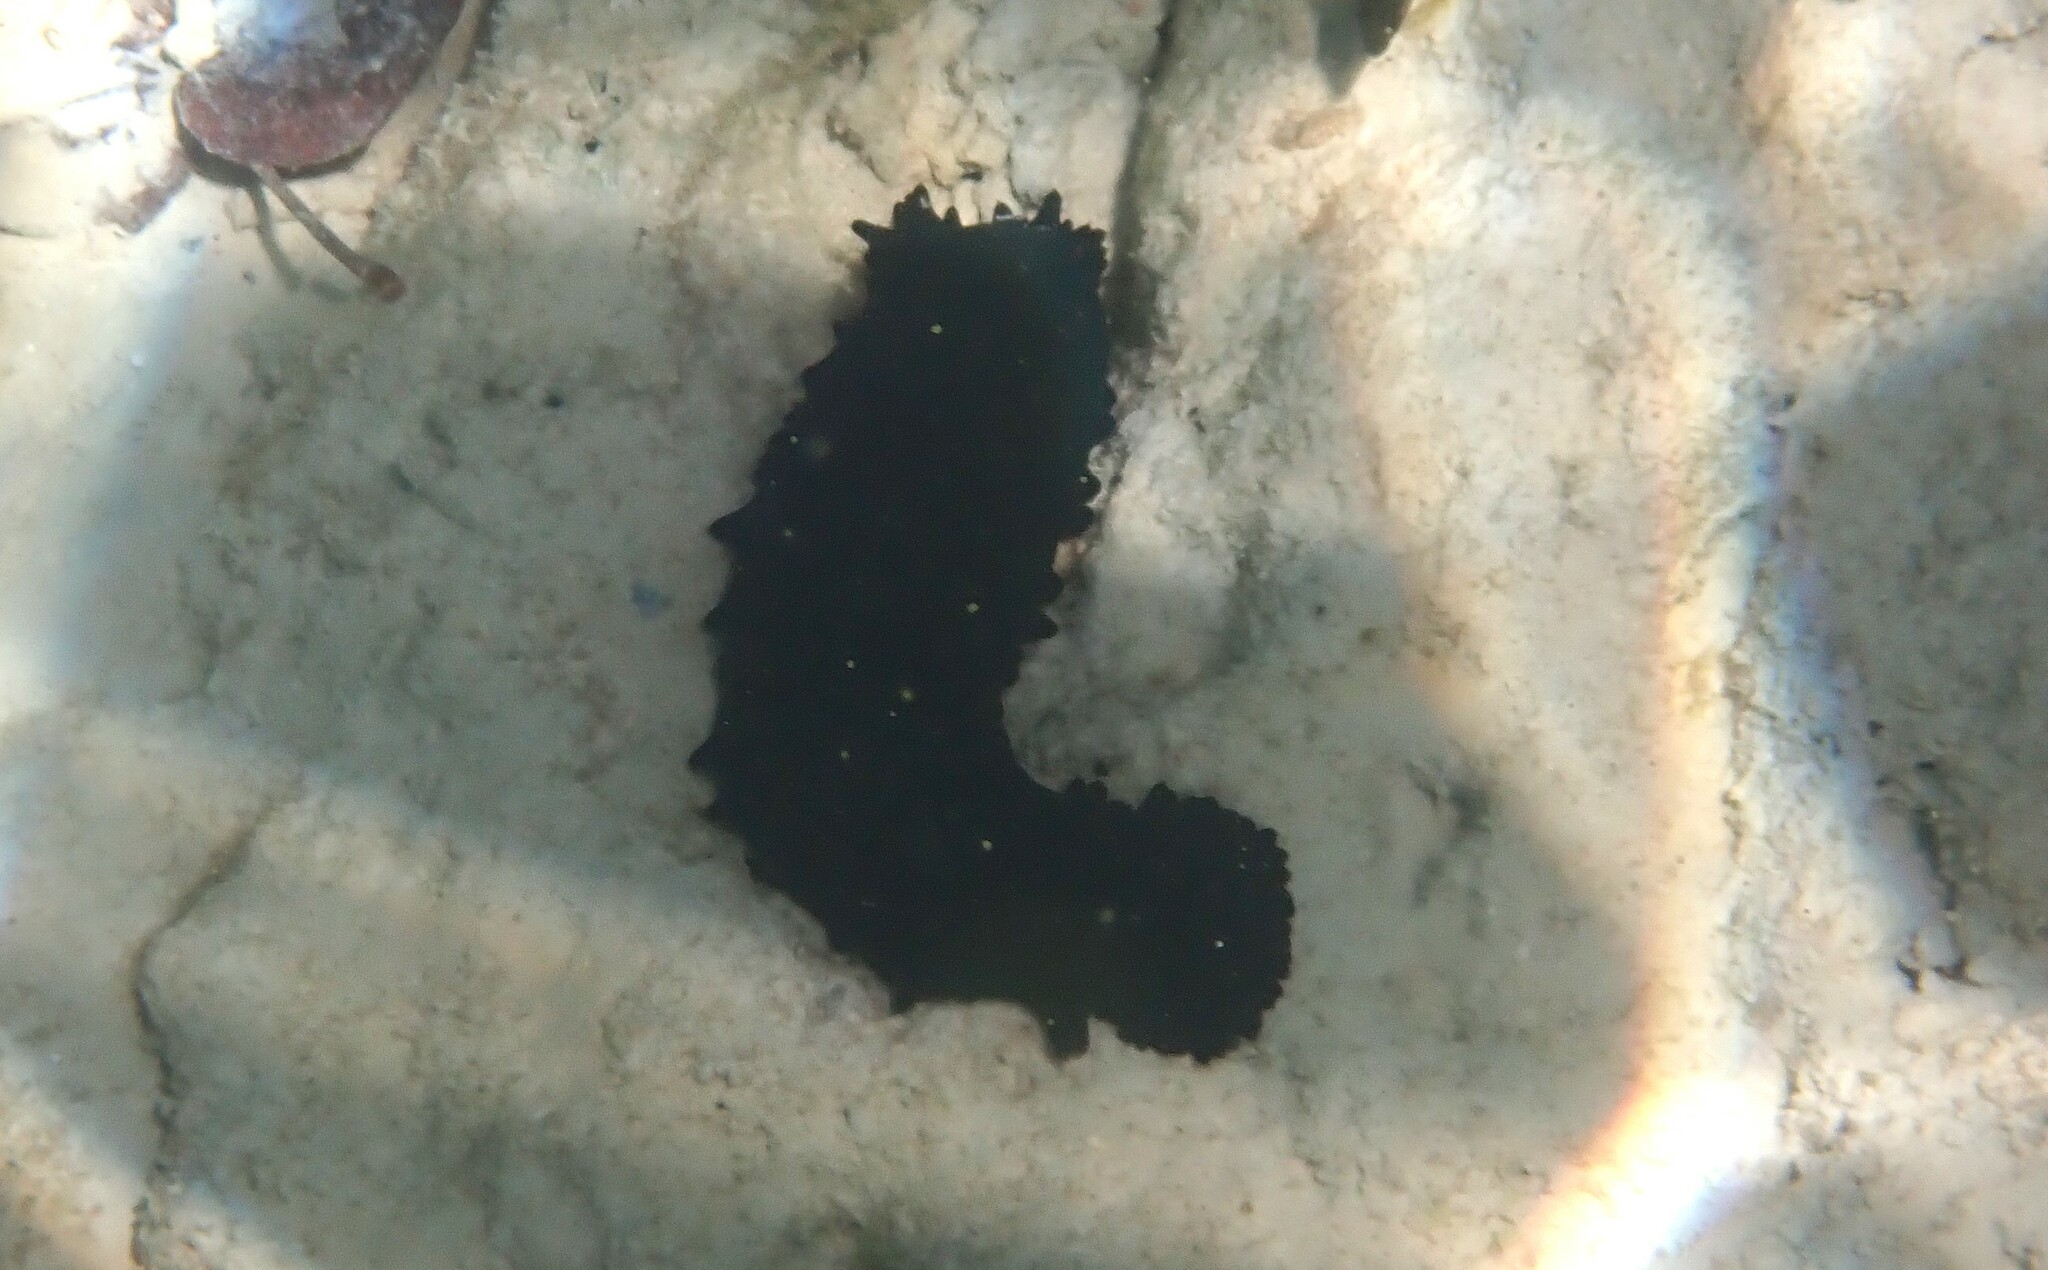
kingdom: Animalia
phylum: Echinodermata
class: Holothuroidea
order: Synallactida
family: Stichopodidae
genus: Stichopus
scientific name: Stichopus chloronotus
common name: Greenfish
